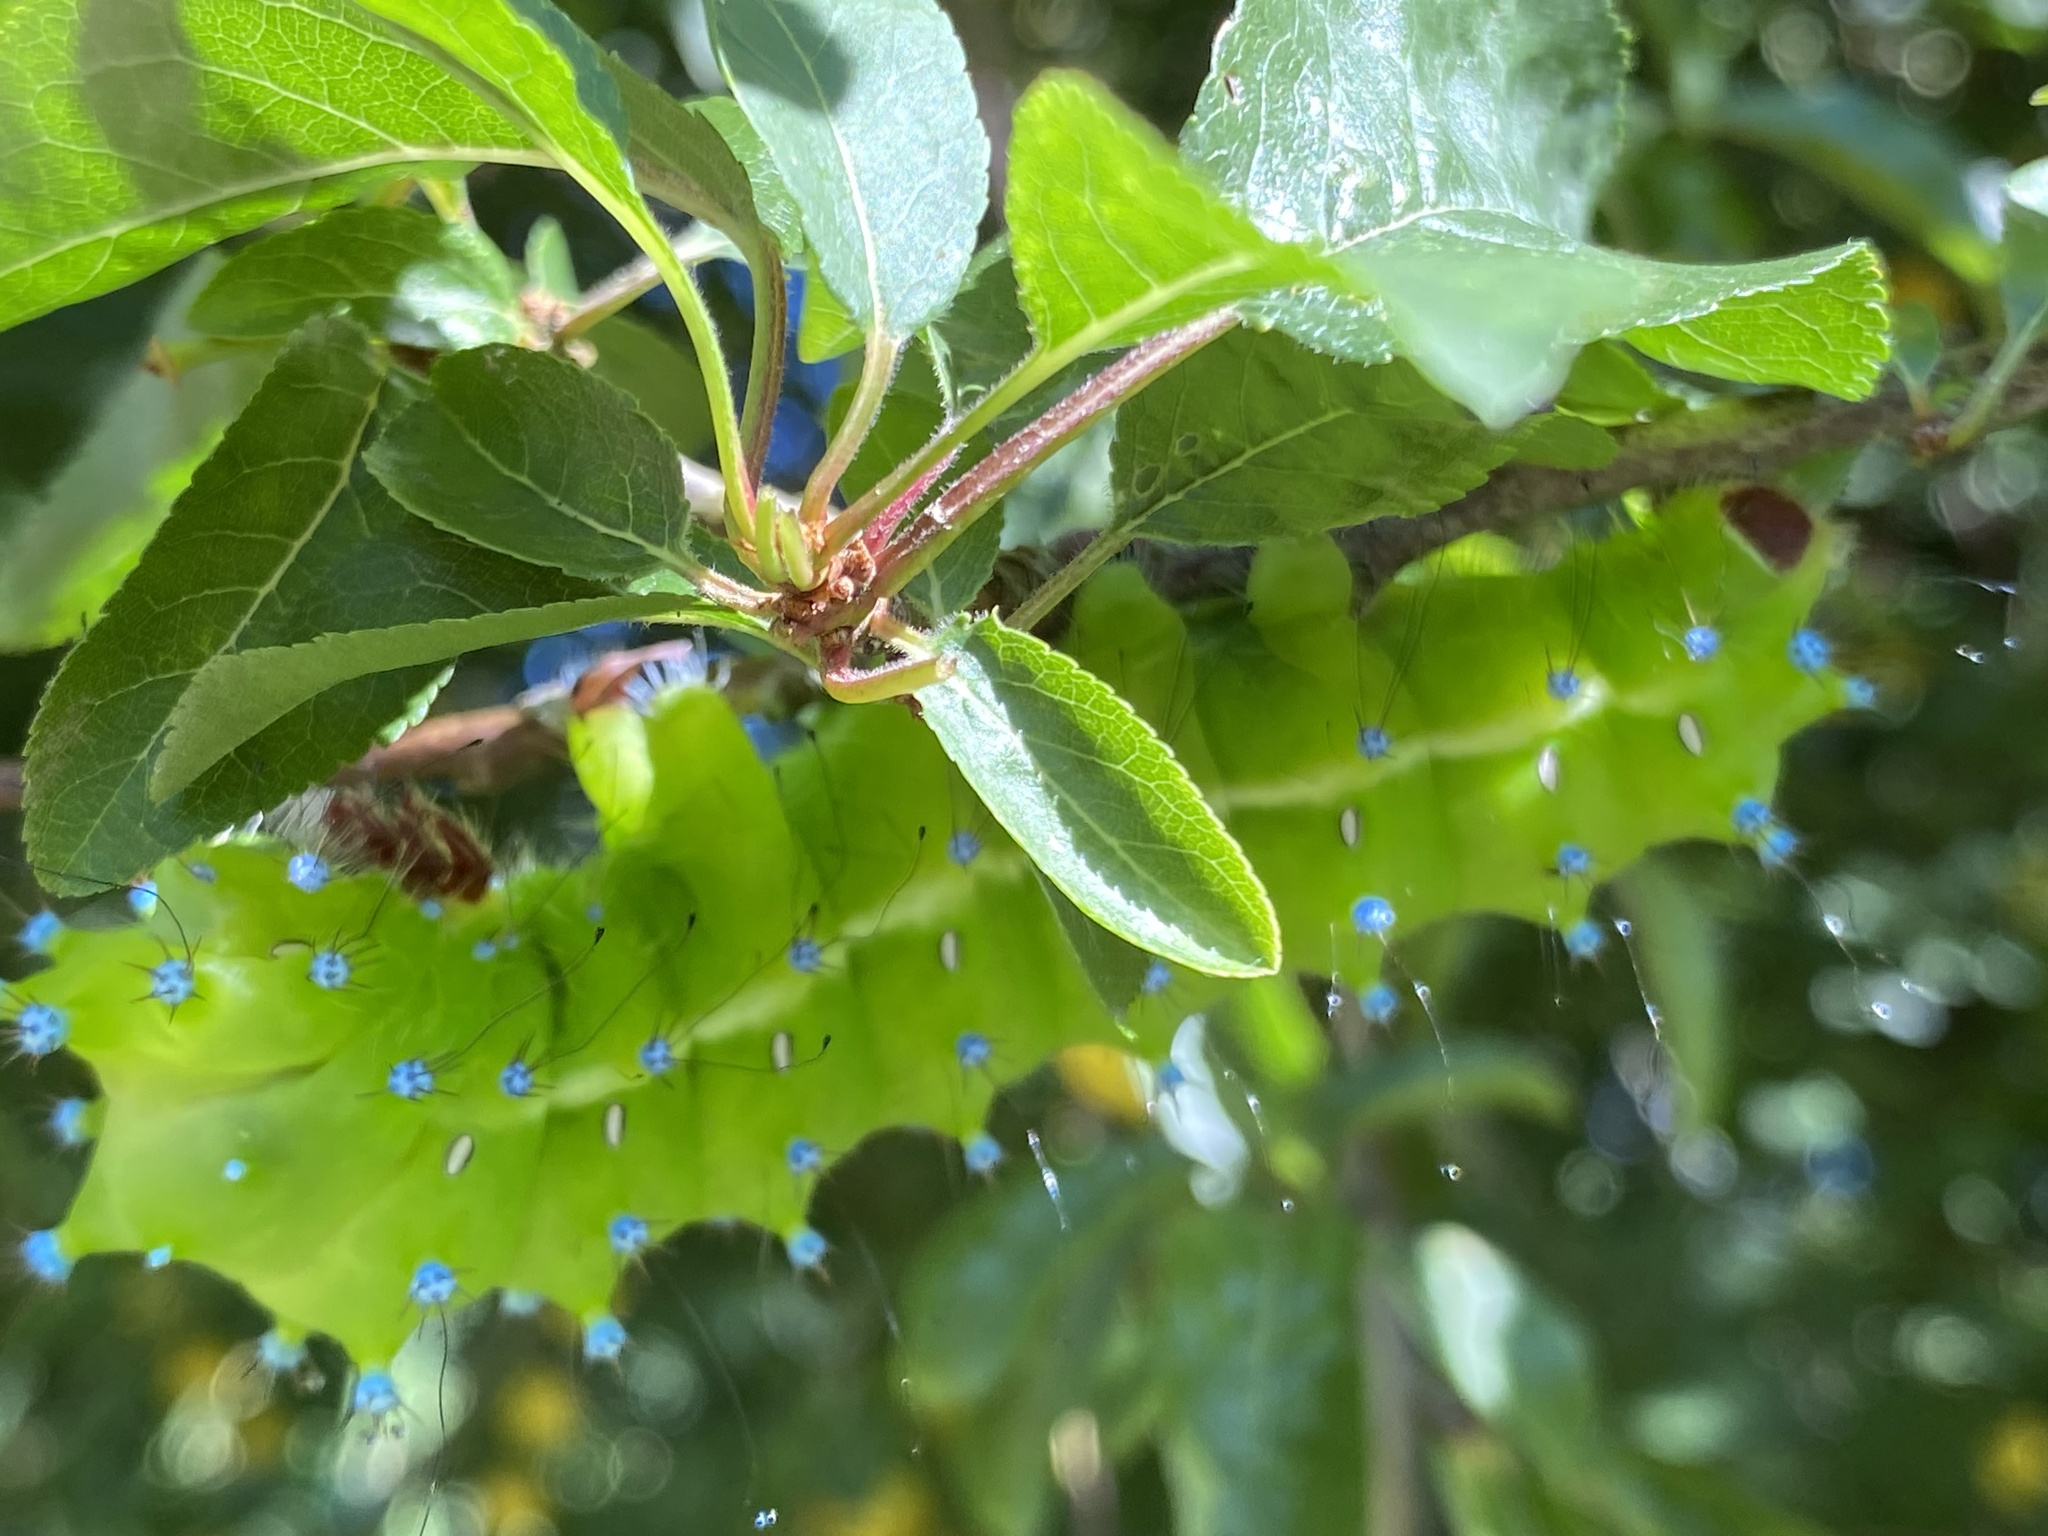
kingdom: Animalia
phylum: Arthropoda
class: Insecta
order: Lepidoptera
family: Saturniidae
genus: Saturnia
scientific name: Saturnia pyri
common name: Great peacock moth
